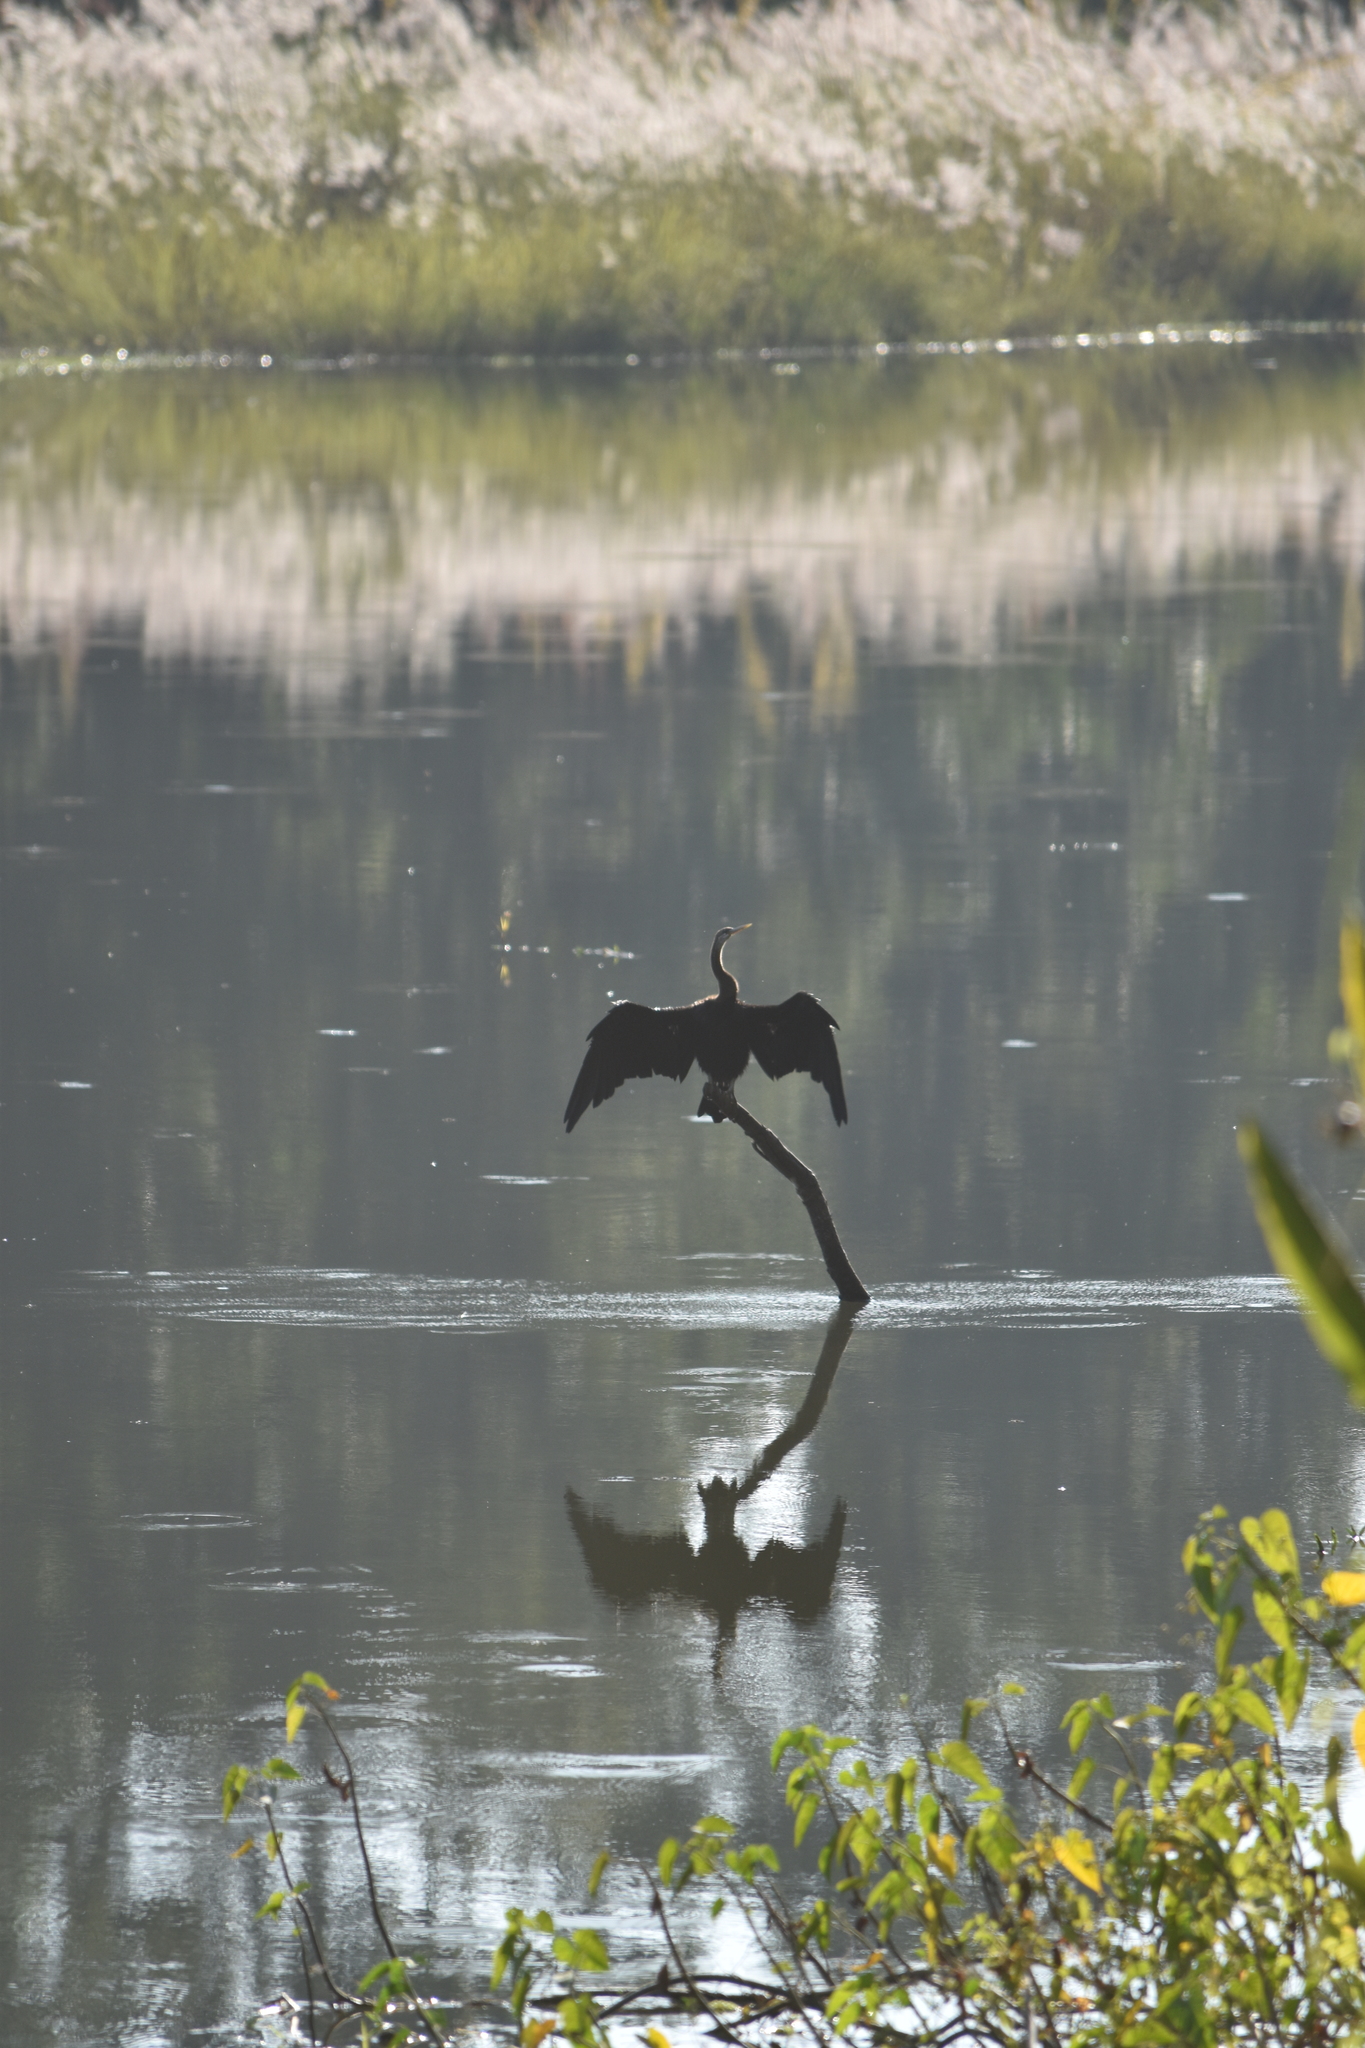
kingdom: Animalia
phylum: Chordata
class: Aves
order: Suliformes
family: Anhingidae
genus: Anhinga
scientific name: Anhinga melanogaster
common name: Oriental darter
